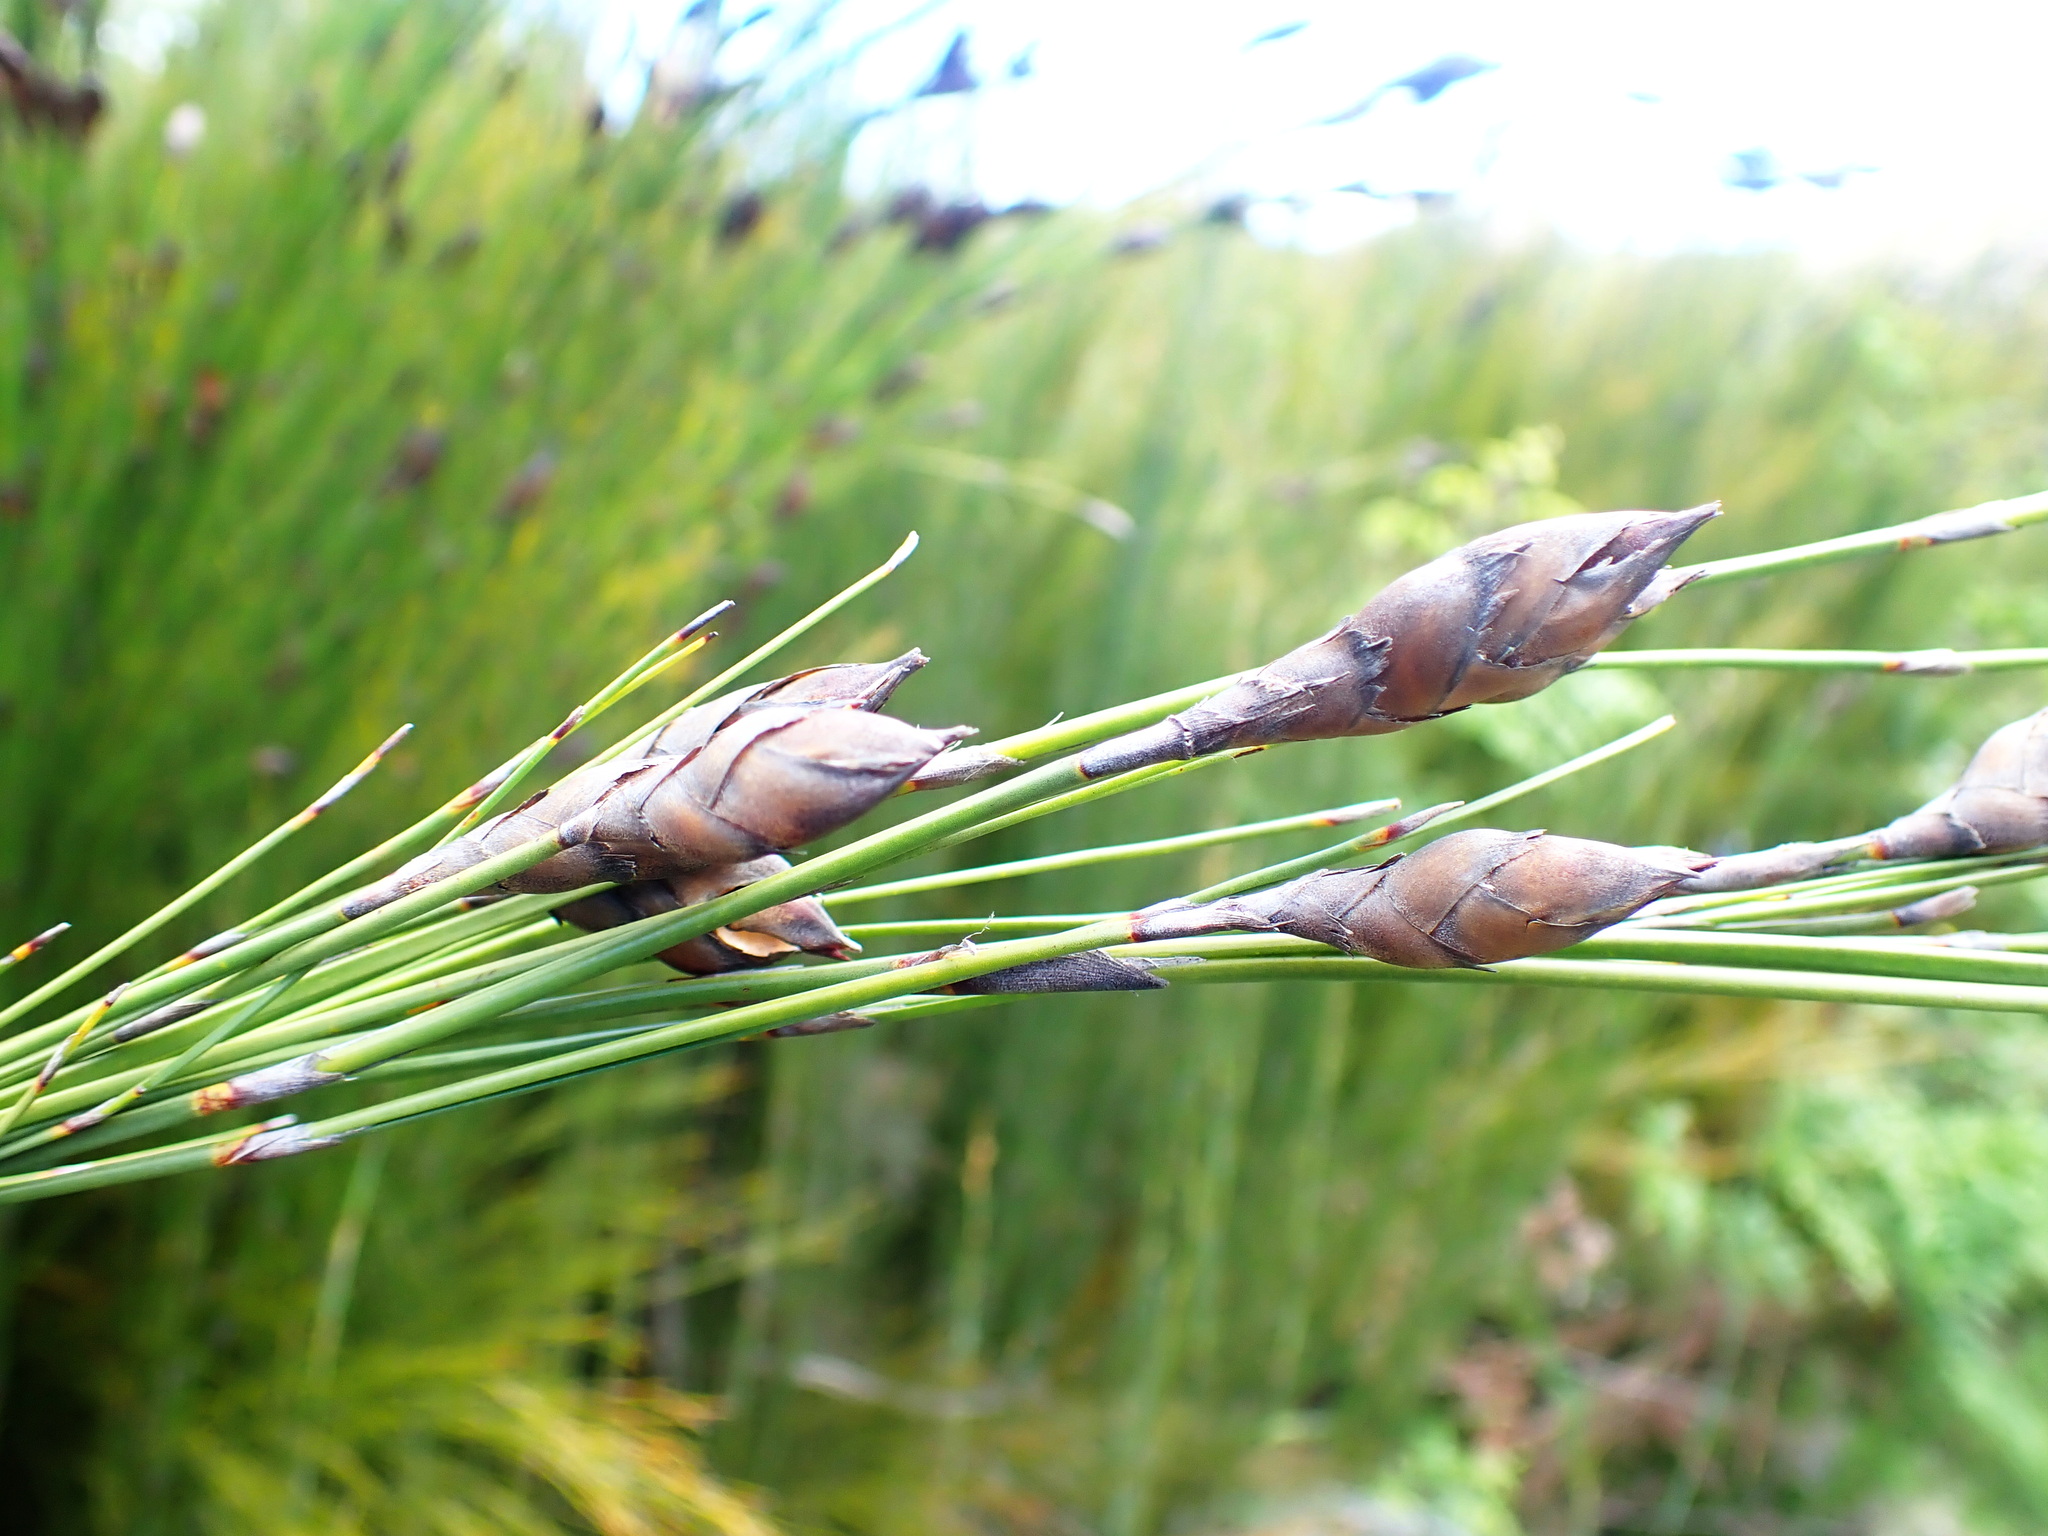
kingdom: Plantae
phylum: Tracheophyta
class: Liliopsida
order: Poales
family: Restionaceae
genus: Cannomois
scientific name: Cannomois grandis
